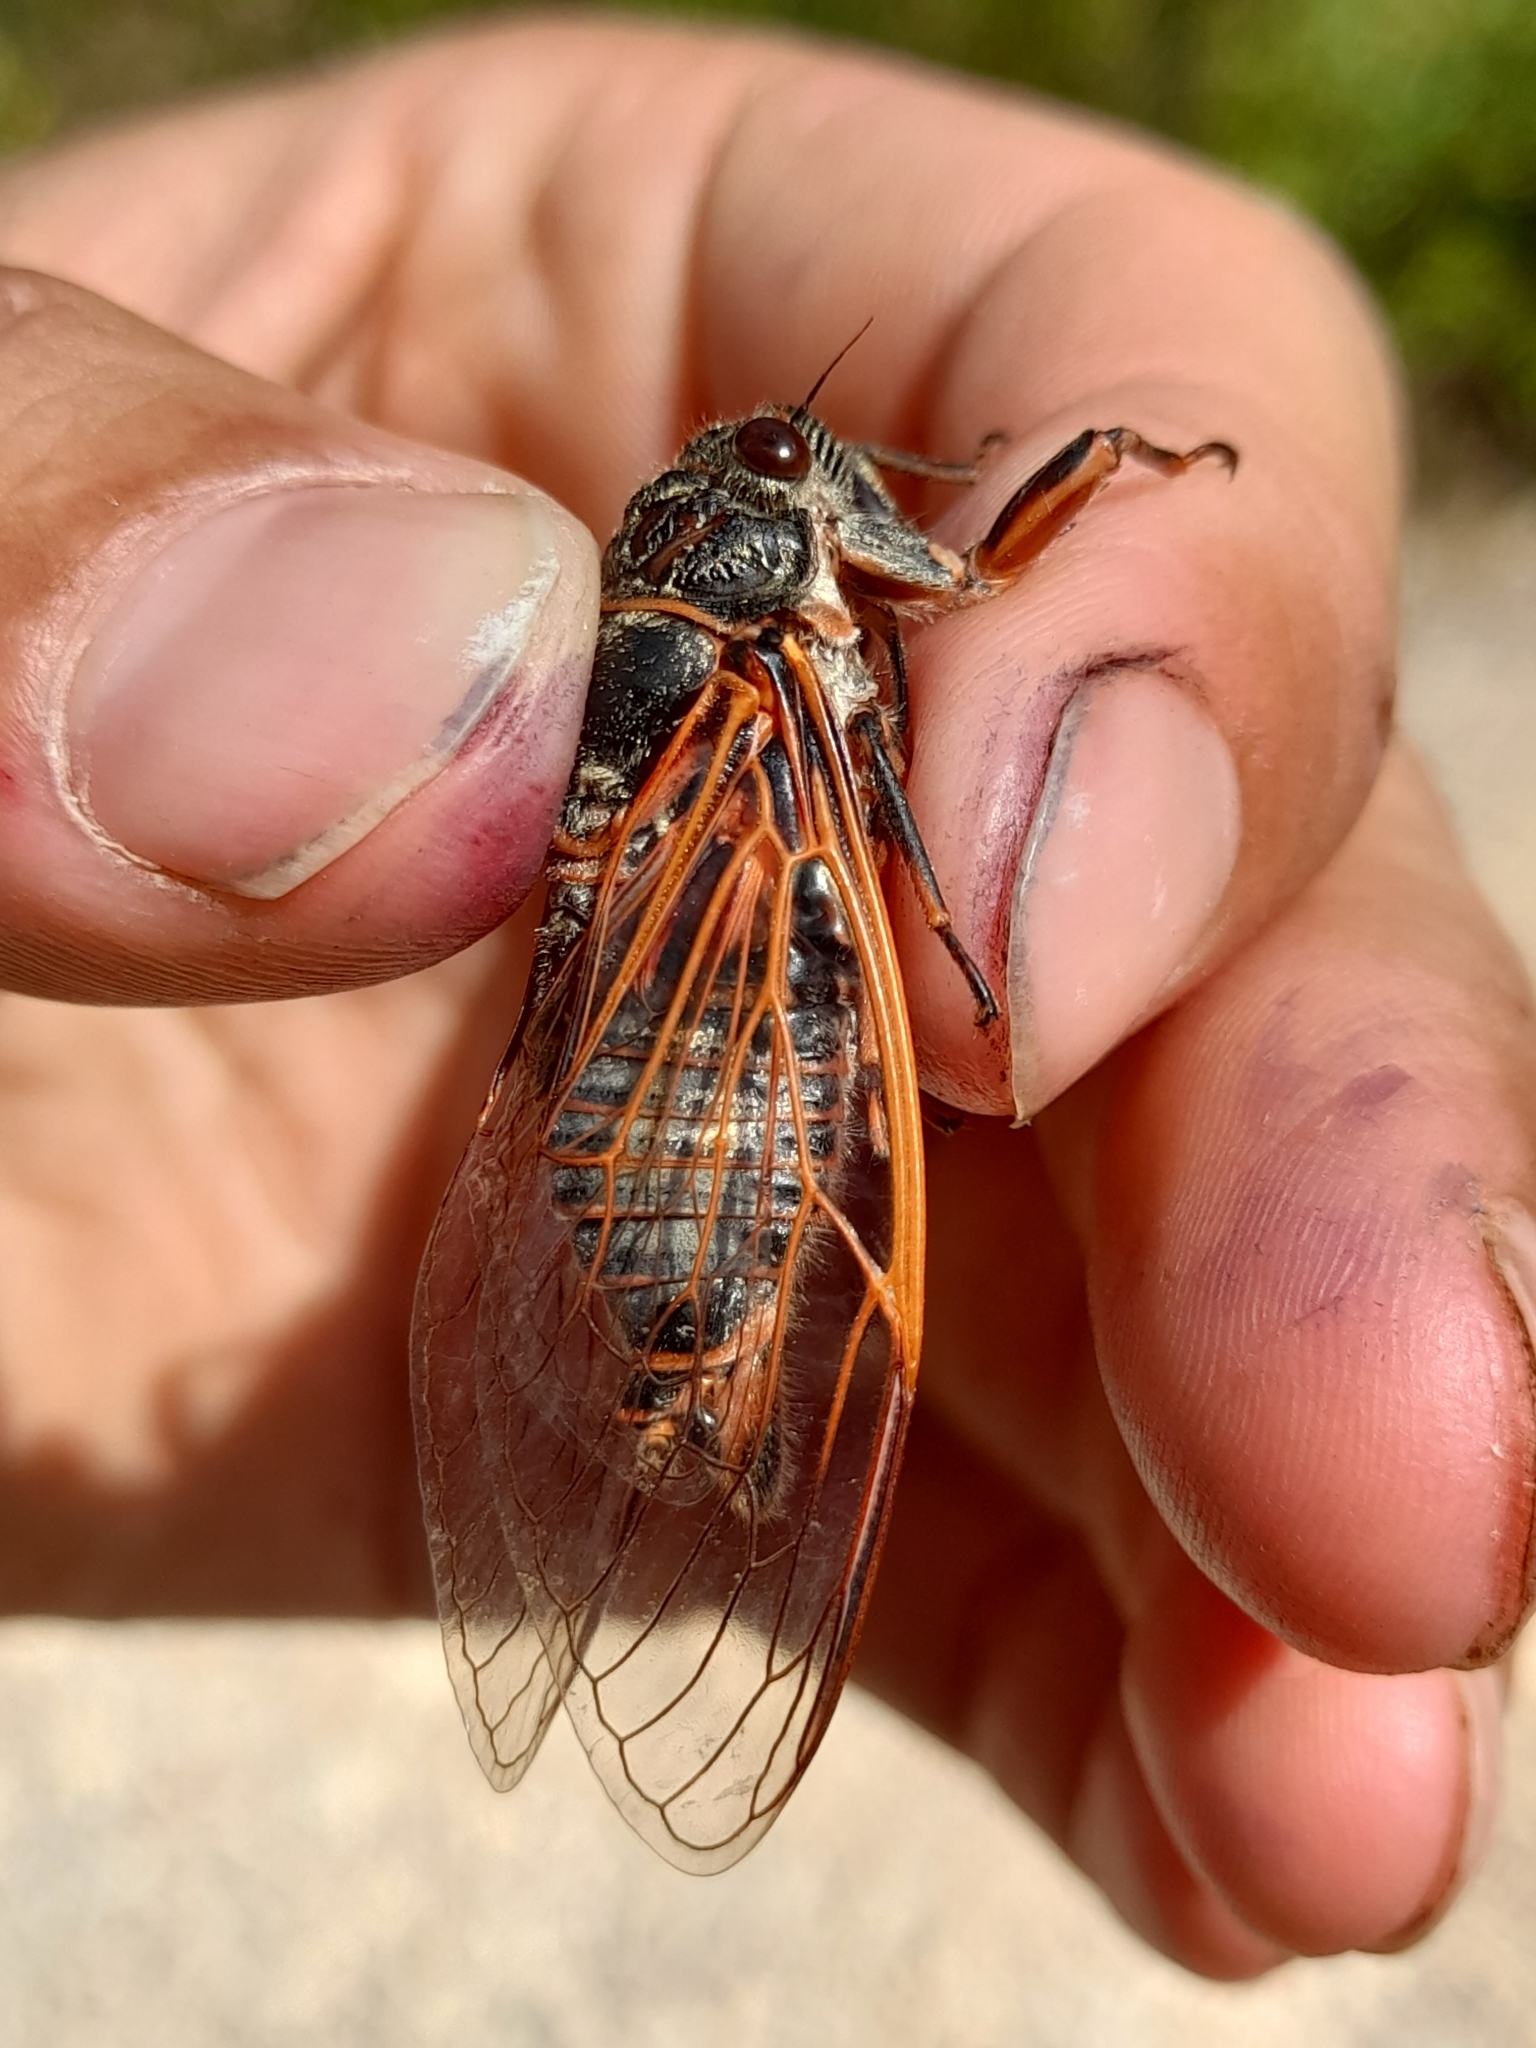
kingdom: Animalia
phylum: Arthropoda
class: Insecta
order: Hemiptera
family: Cicadidae
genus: Tibicina
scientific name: Tibicina haematodes
